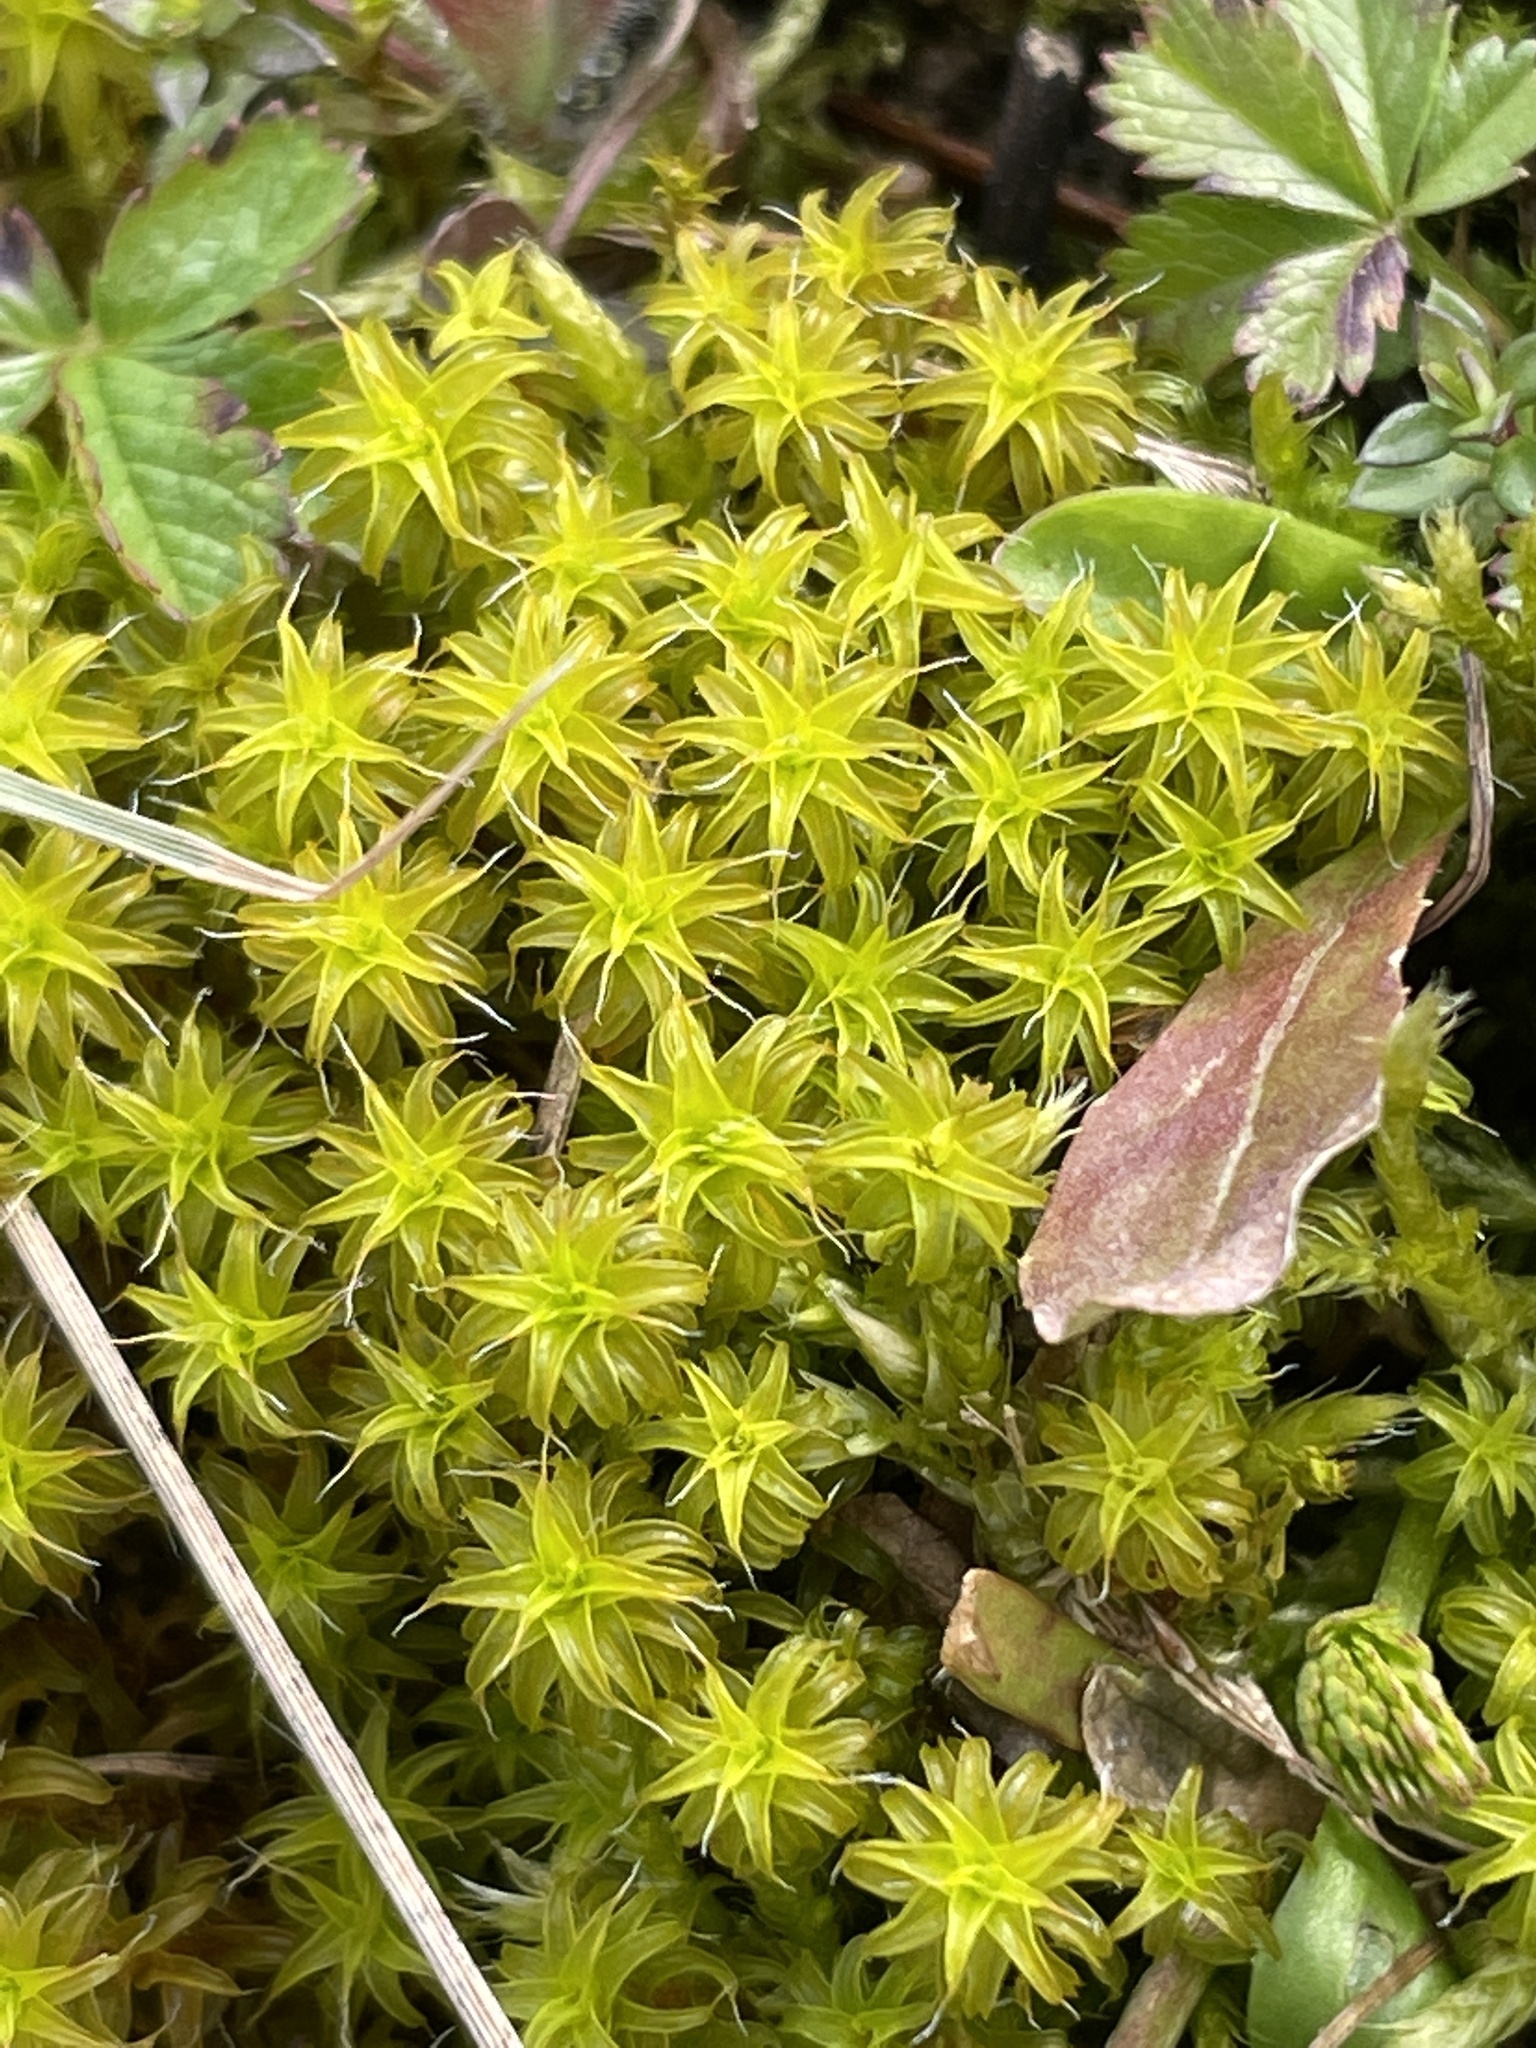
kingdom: Plantae
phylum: Bryophyta
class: Bryopsida
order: Pottiales
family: Pottiaceae
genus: Syntrichia
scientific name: Syntrichia ruralis
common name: Sidewalk screw moss
